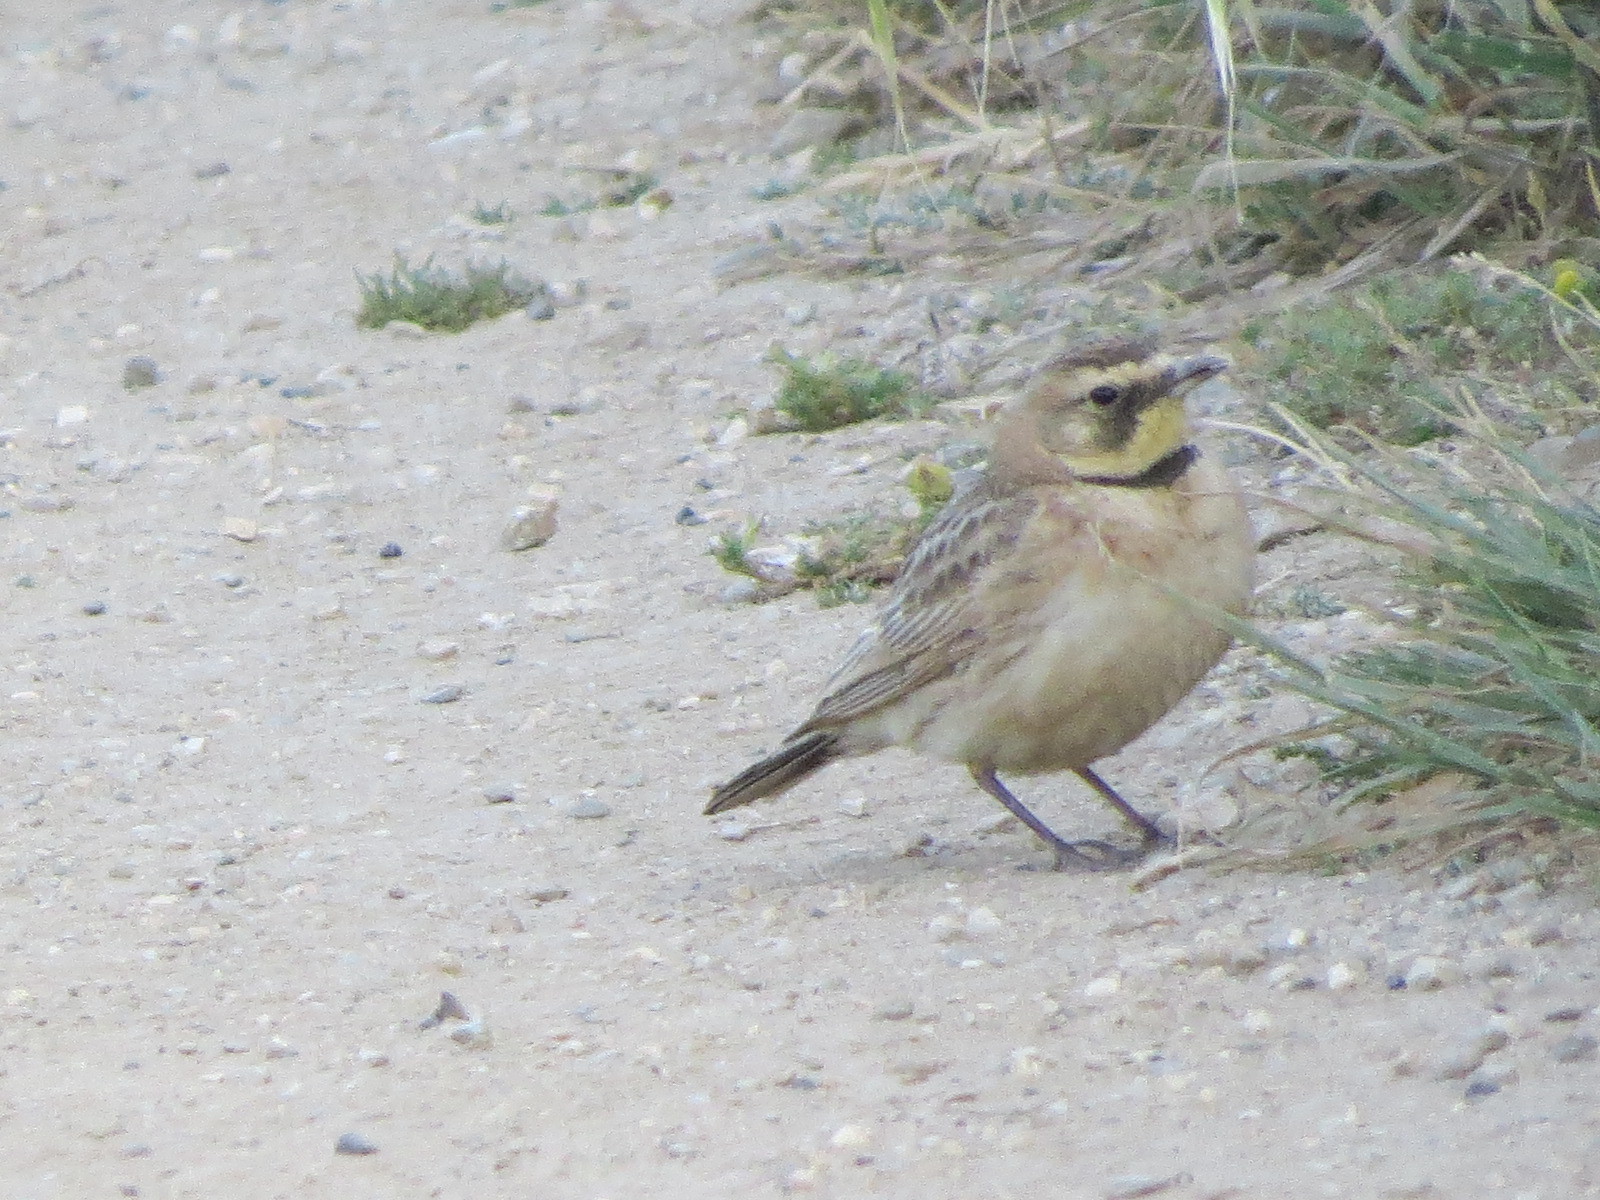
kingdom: Animalia
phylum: Chordata
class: Aves
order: Passeriformes
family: Alaudidae
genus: Eremophila
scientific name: Eremophila alpestris
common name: Horned lark
